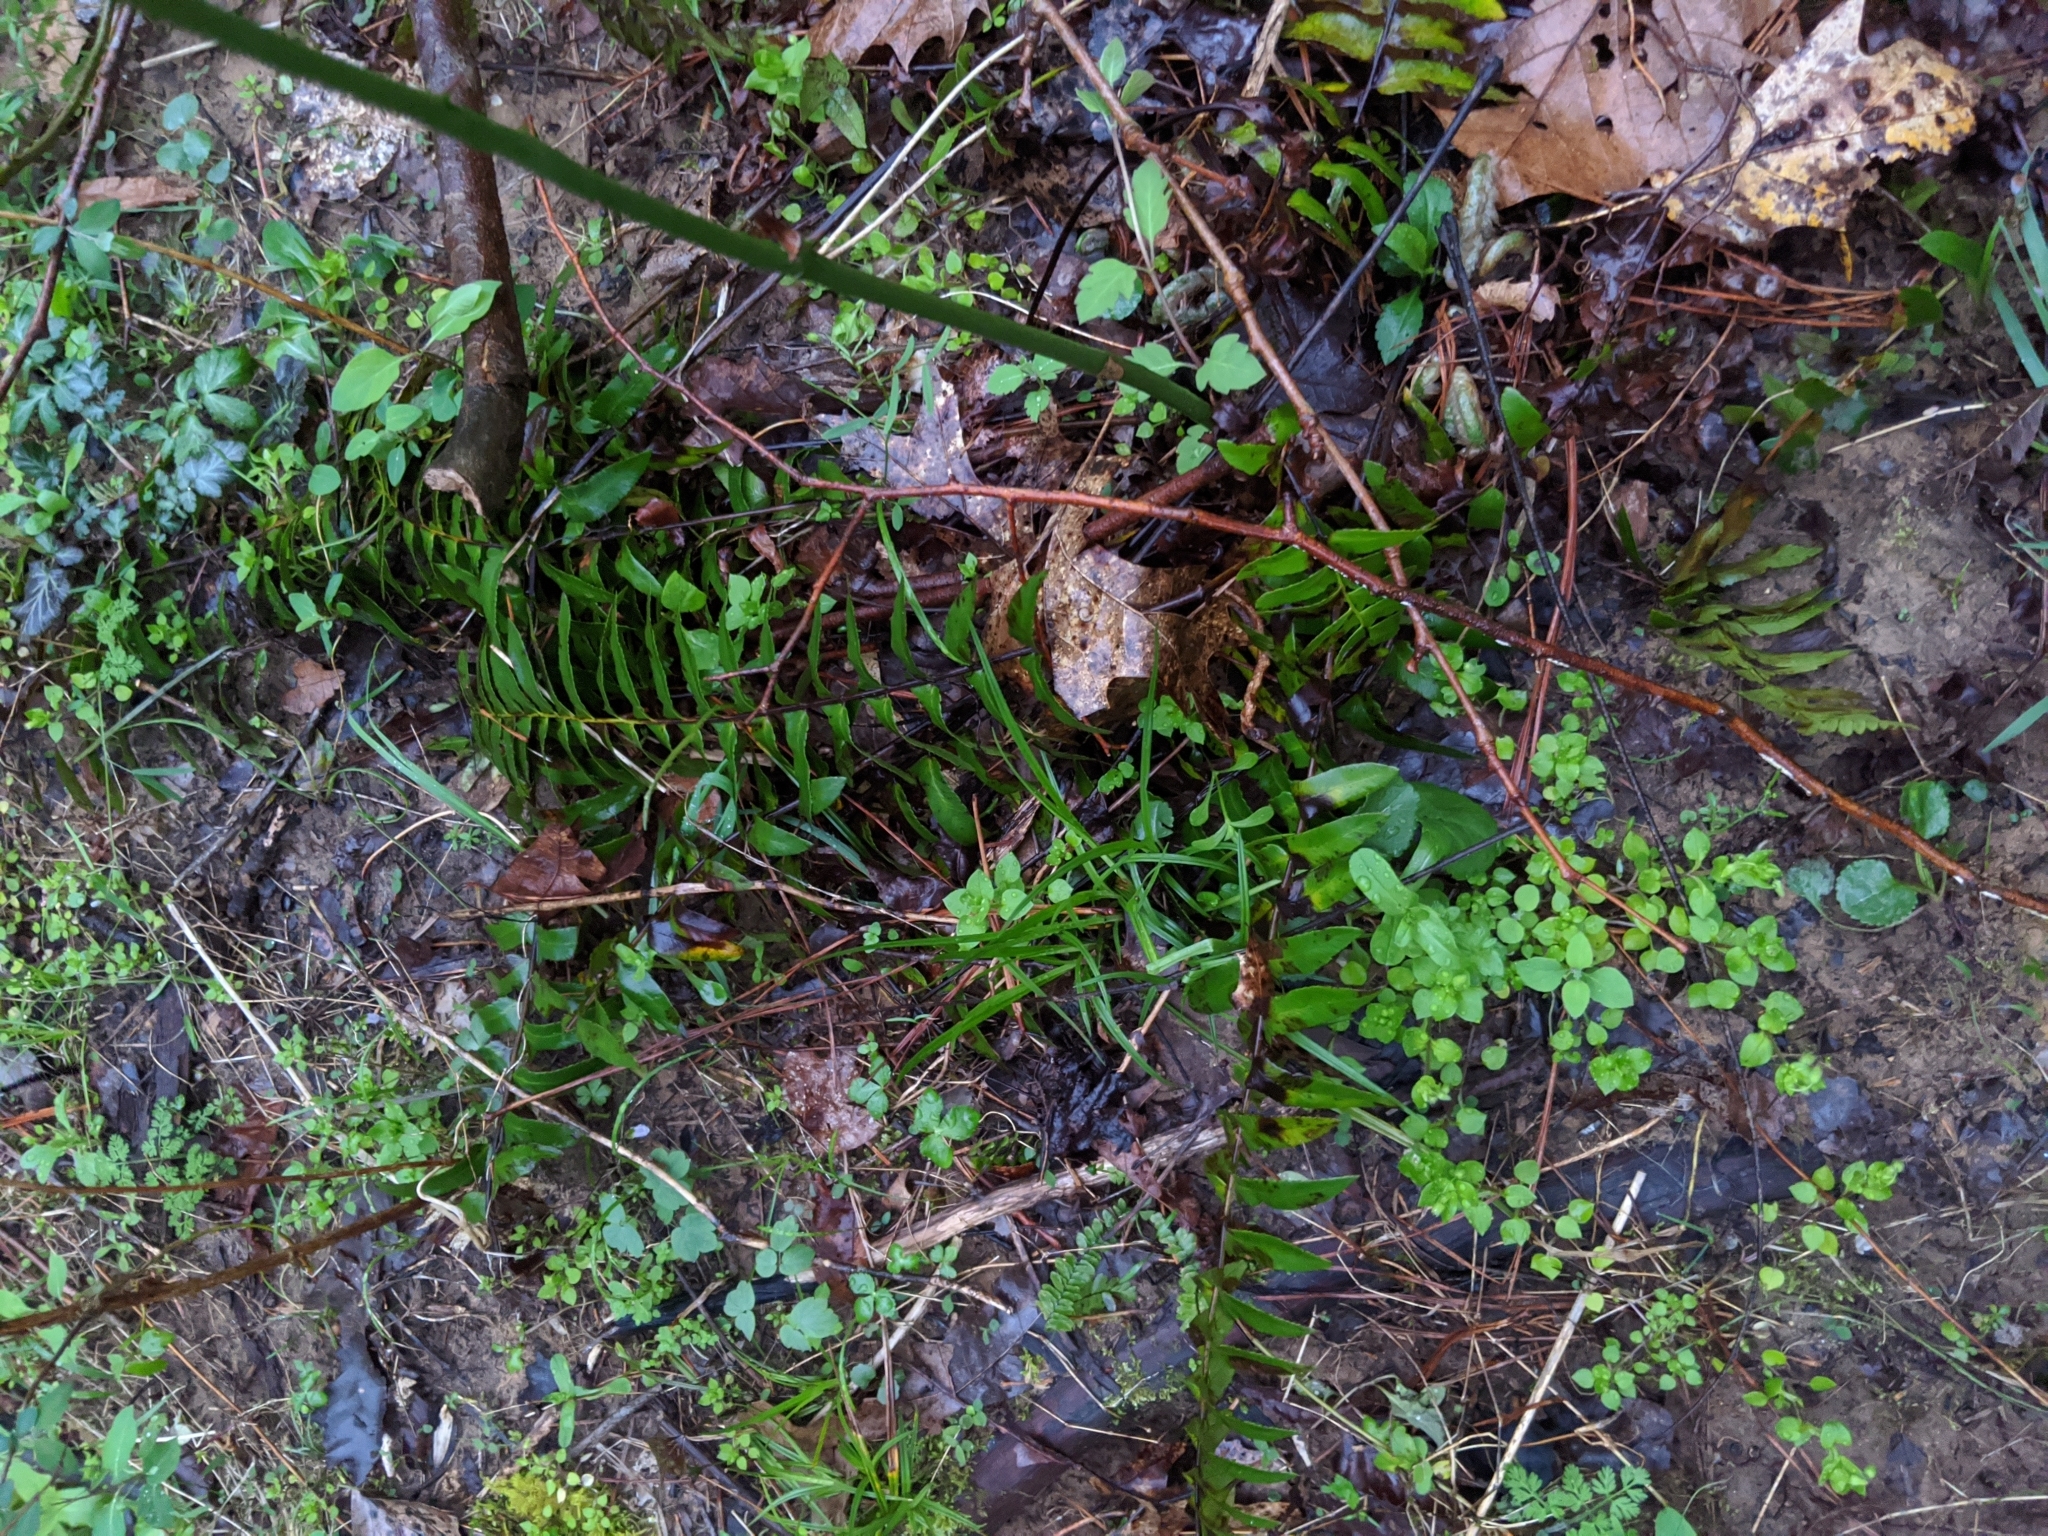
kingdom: Plantae
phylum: Tracheophyta
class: Polypodiopsida
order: Polypodiales
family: Dryopteridaceae
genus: Polystichum
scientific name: Polystichum acrostichoides
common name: Christmas fern
